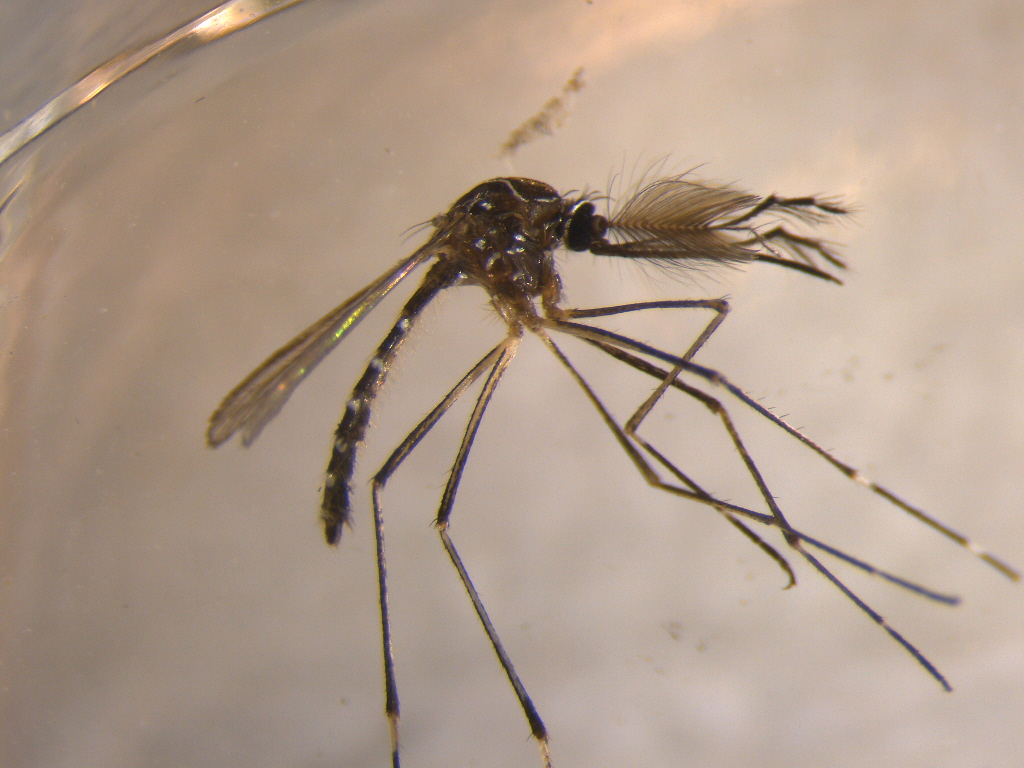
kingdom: Animalia
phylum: Arthropoda
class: Insecta
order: Diptera
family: Culicidae
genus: Aedes
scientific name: Aedes notoscriptus
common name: Australian backyard mosquito
